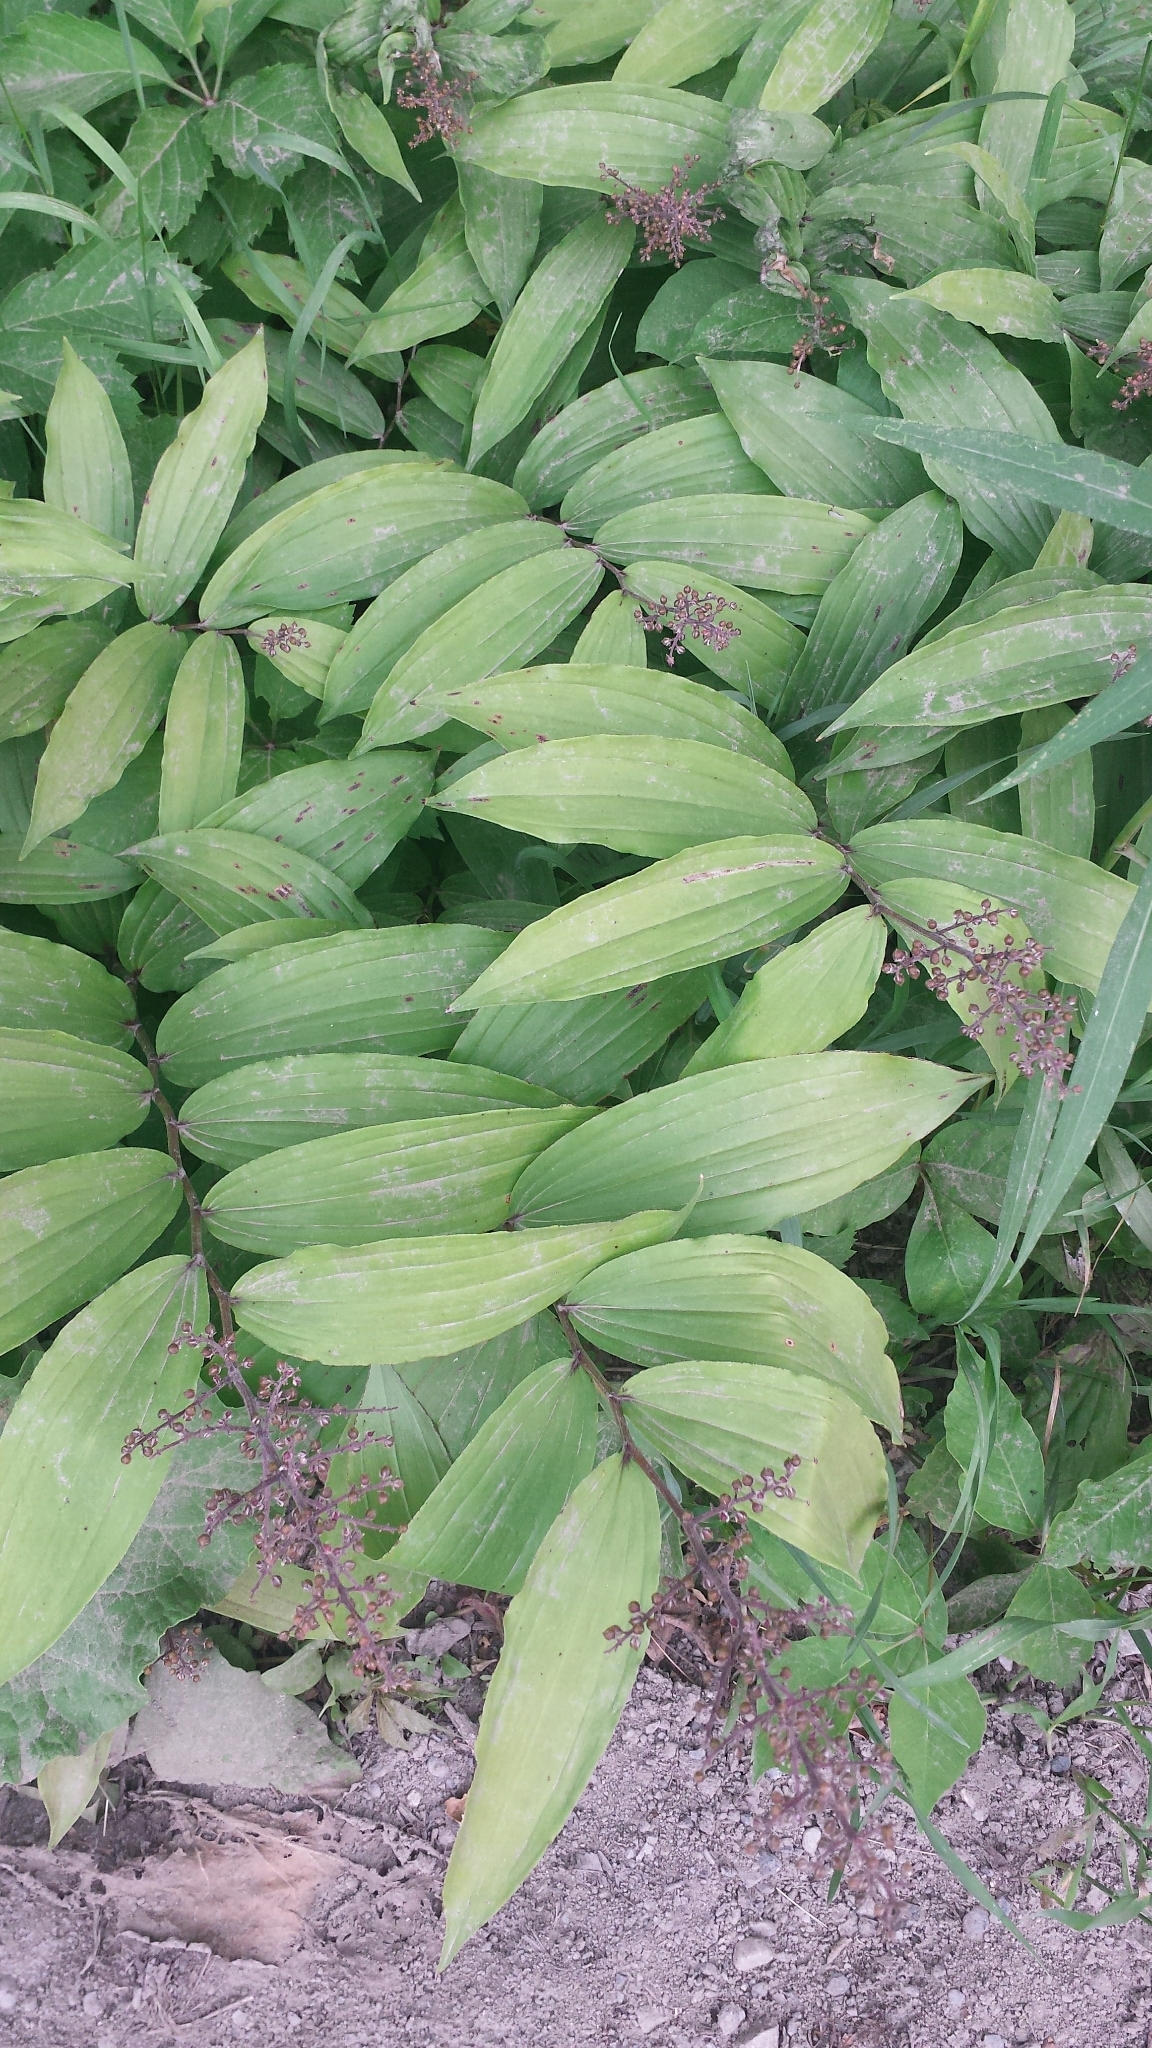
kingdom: Plantae
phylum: Tracheophyta
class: Liliopsida
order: Asparagales
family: Asparagaceae
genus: Maianthemum
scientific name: Maianthemum racemosum
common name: False spikenard
